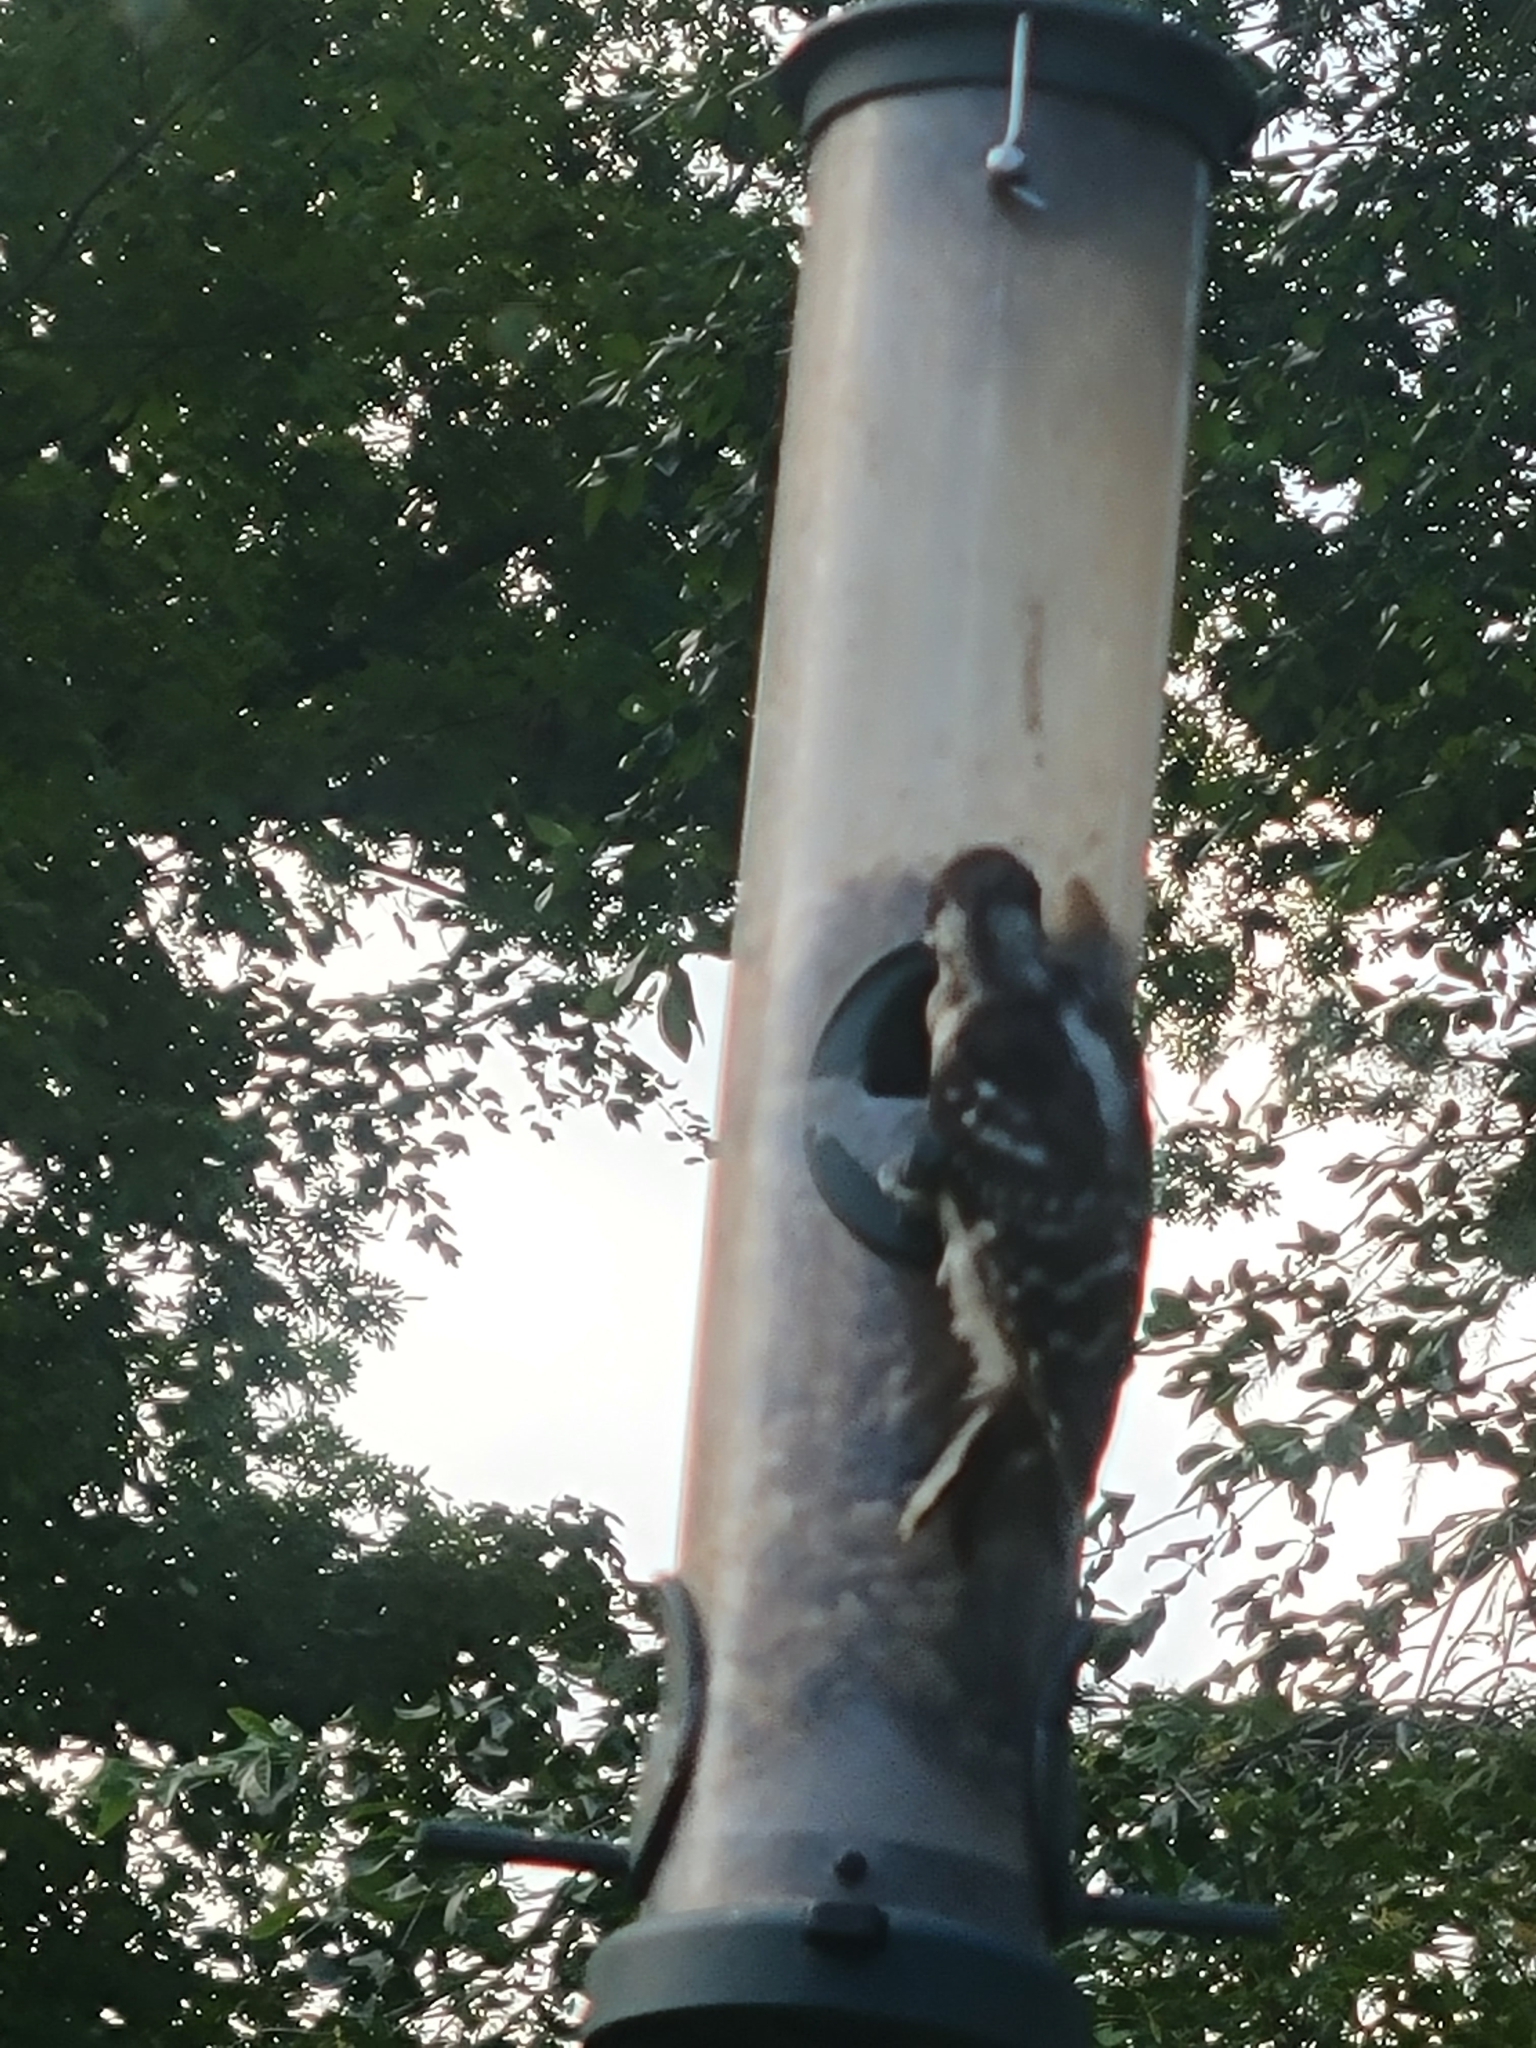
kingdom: Animalia
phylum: Chordata
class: Aves
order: Piciformes
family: Picidae
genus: Dryobates
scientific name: Dryobates pubescens
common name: Downy woodpecker
